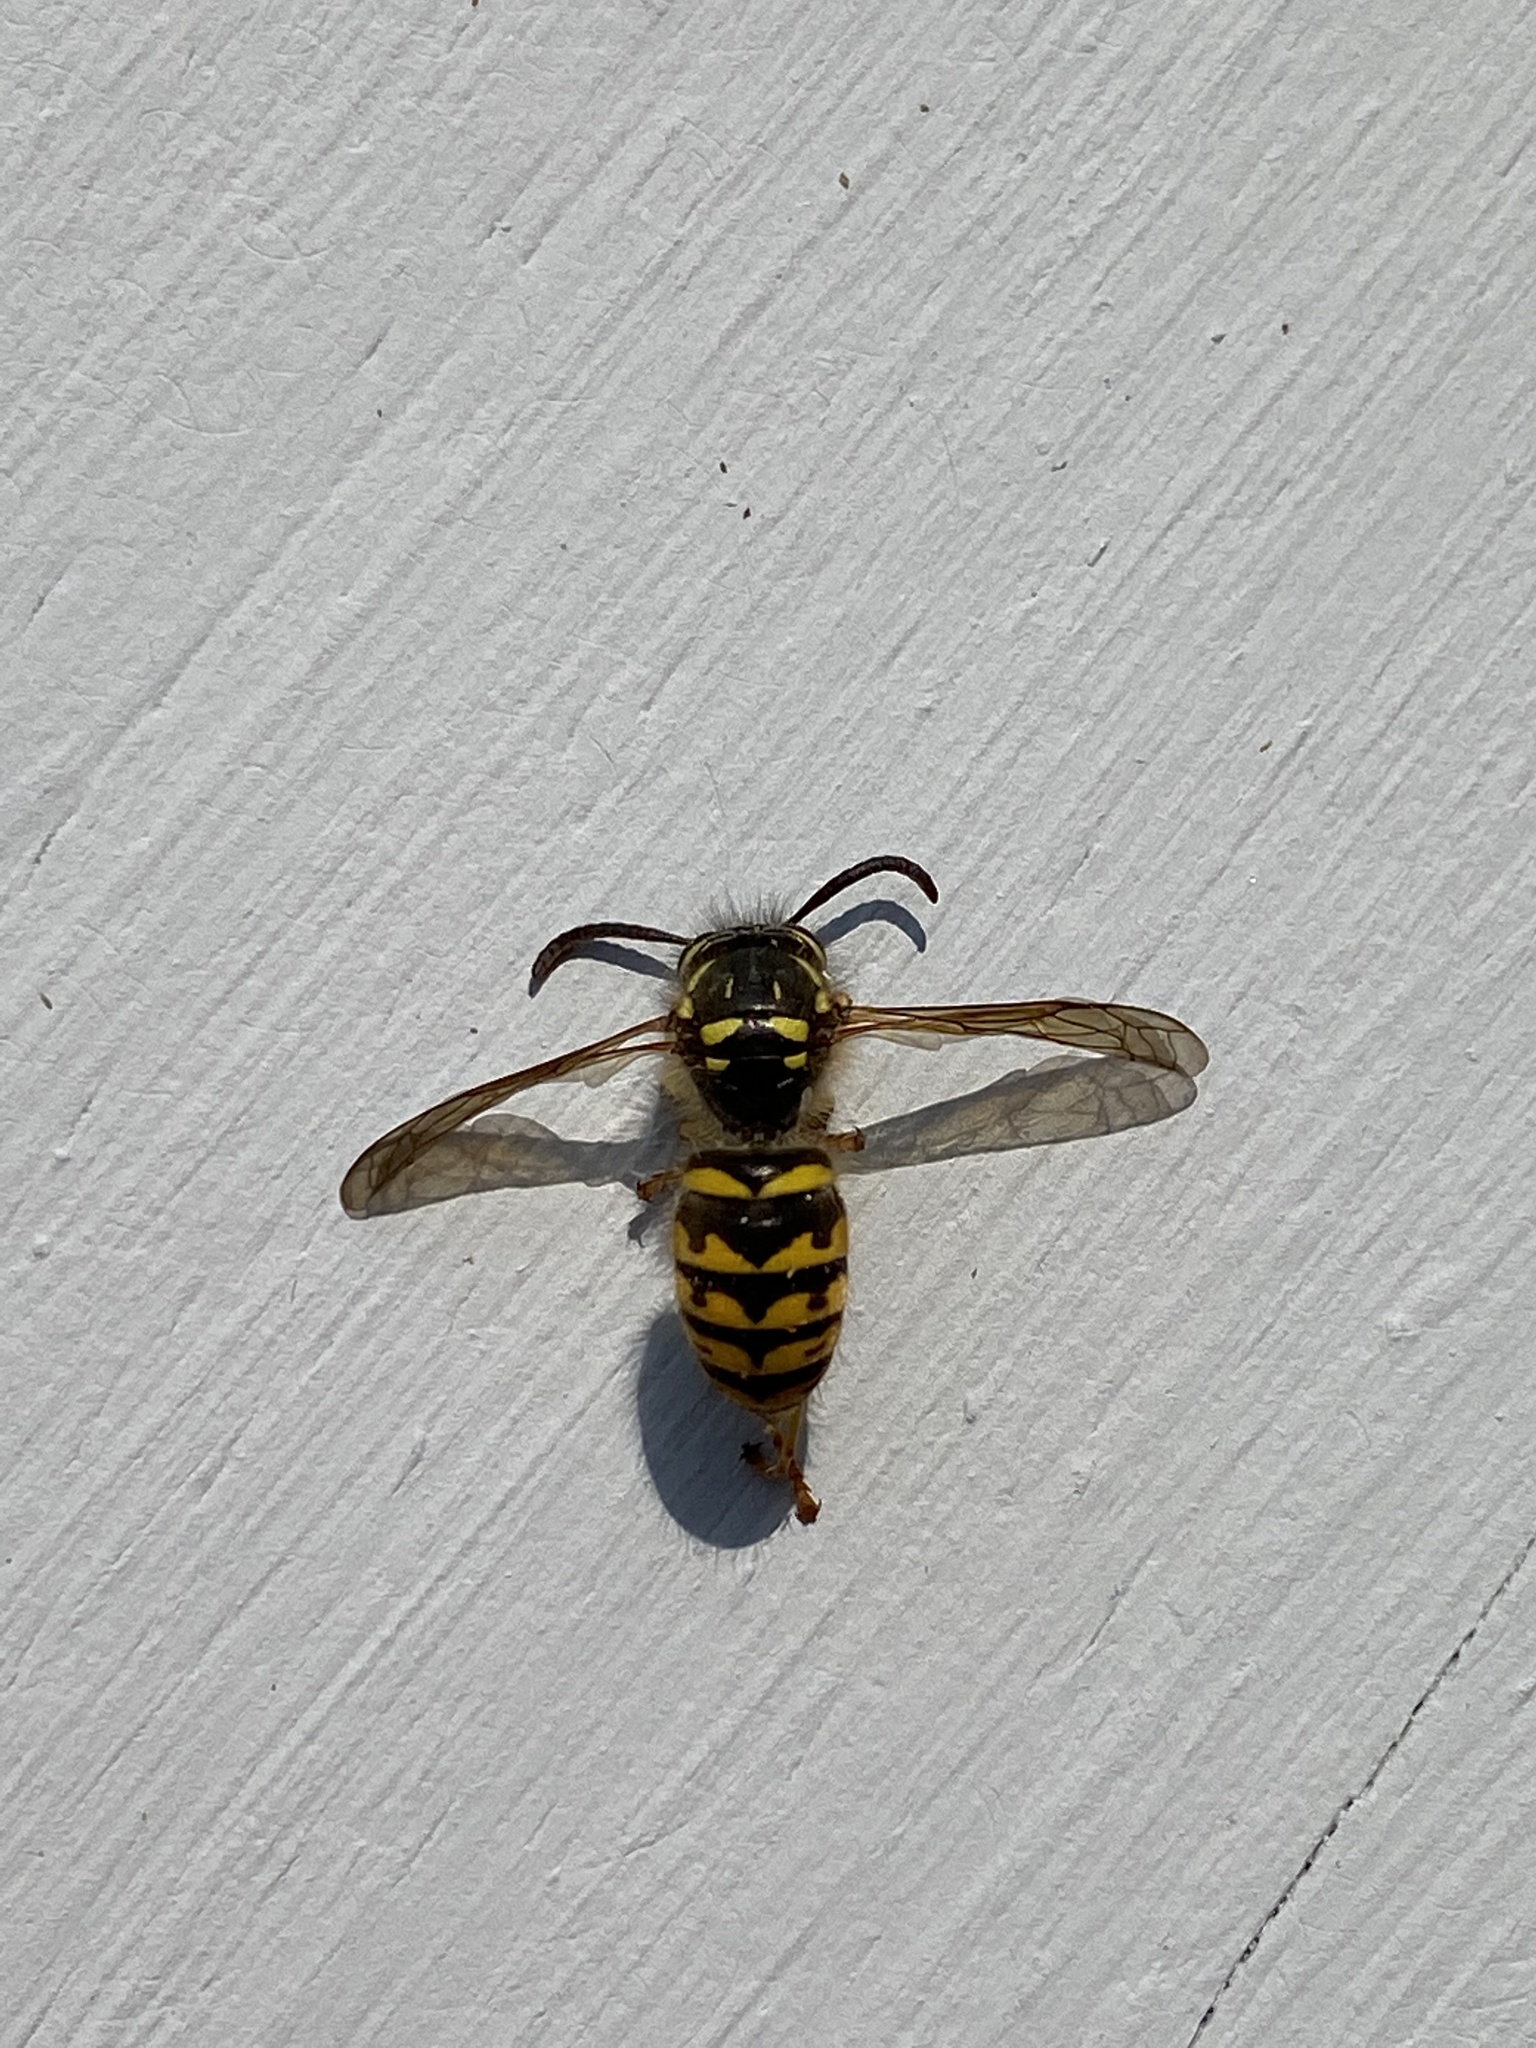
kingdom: Animalia
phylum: Arthropoda
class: Insecta
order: Hymenoptera
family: Vespidae
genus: Dolichovespula
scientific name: Dolichovespula arenaria
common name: Aerial yellowjacket
